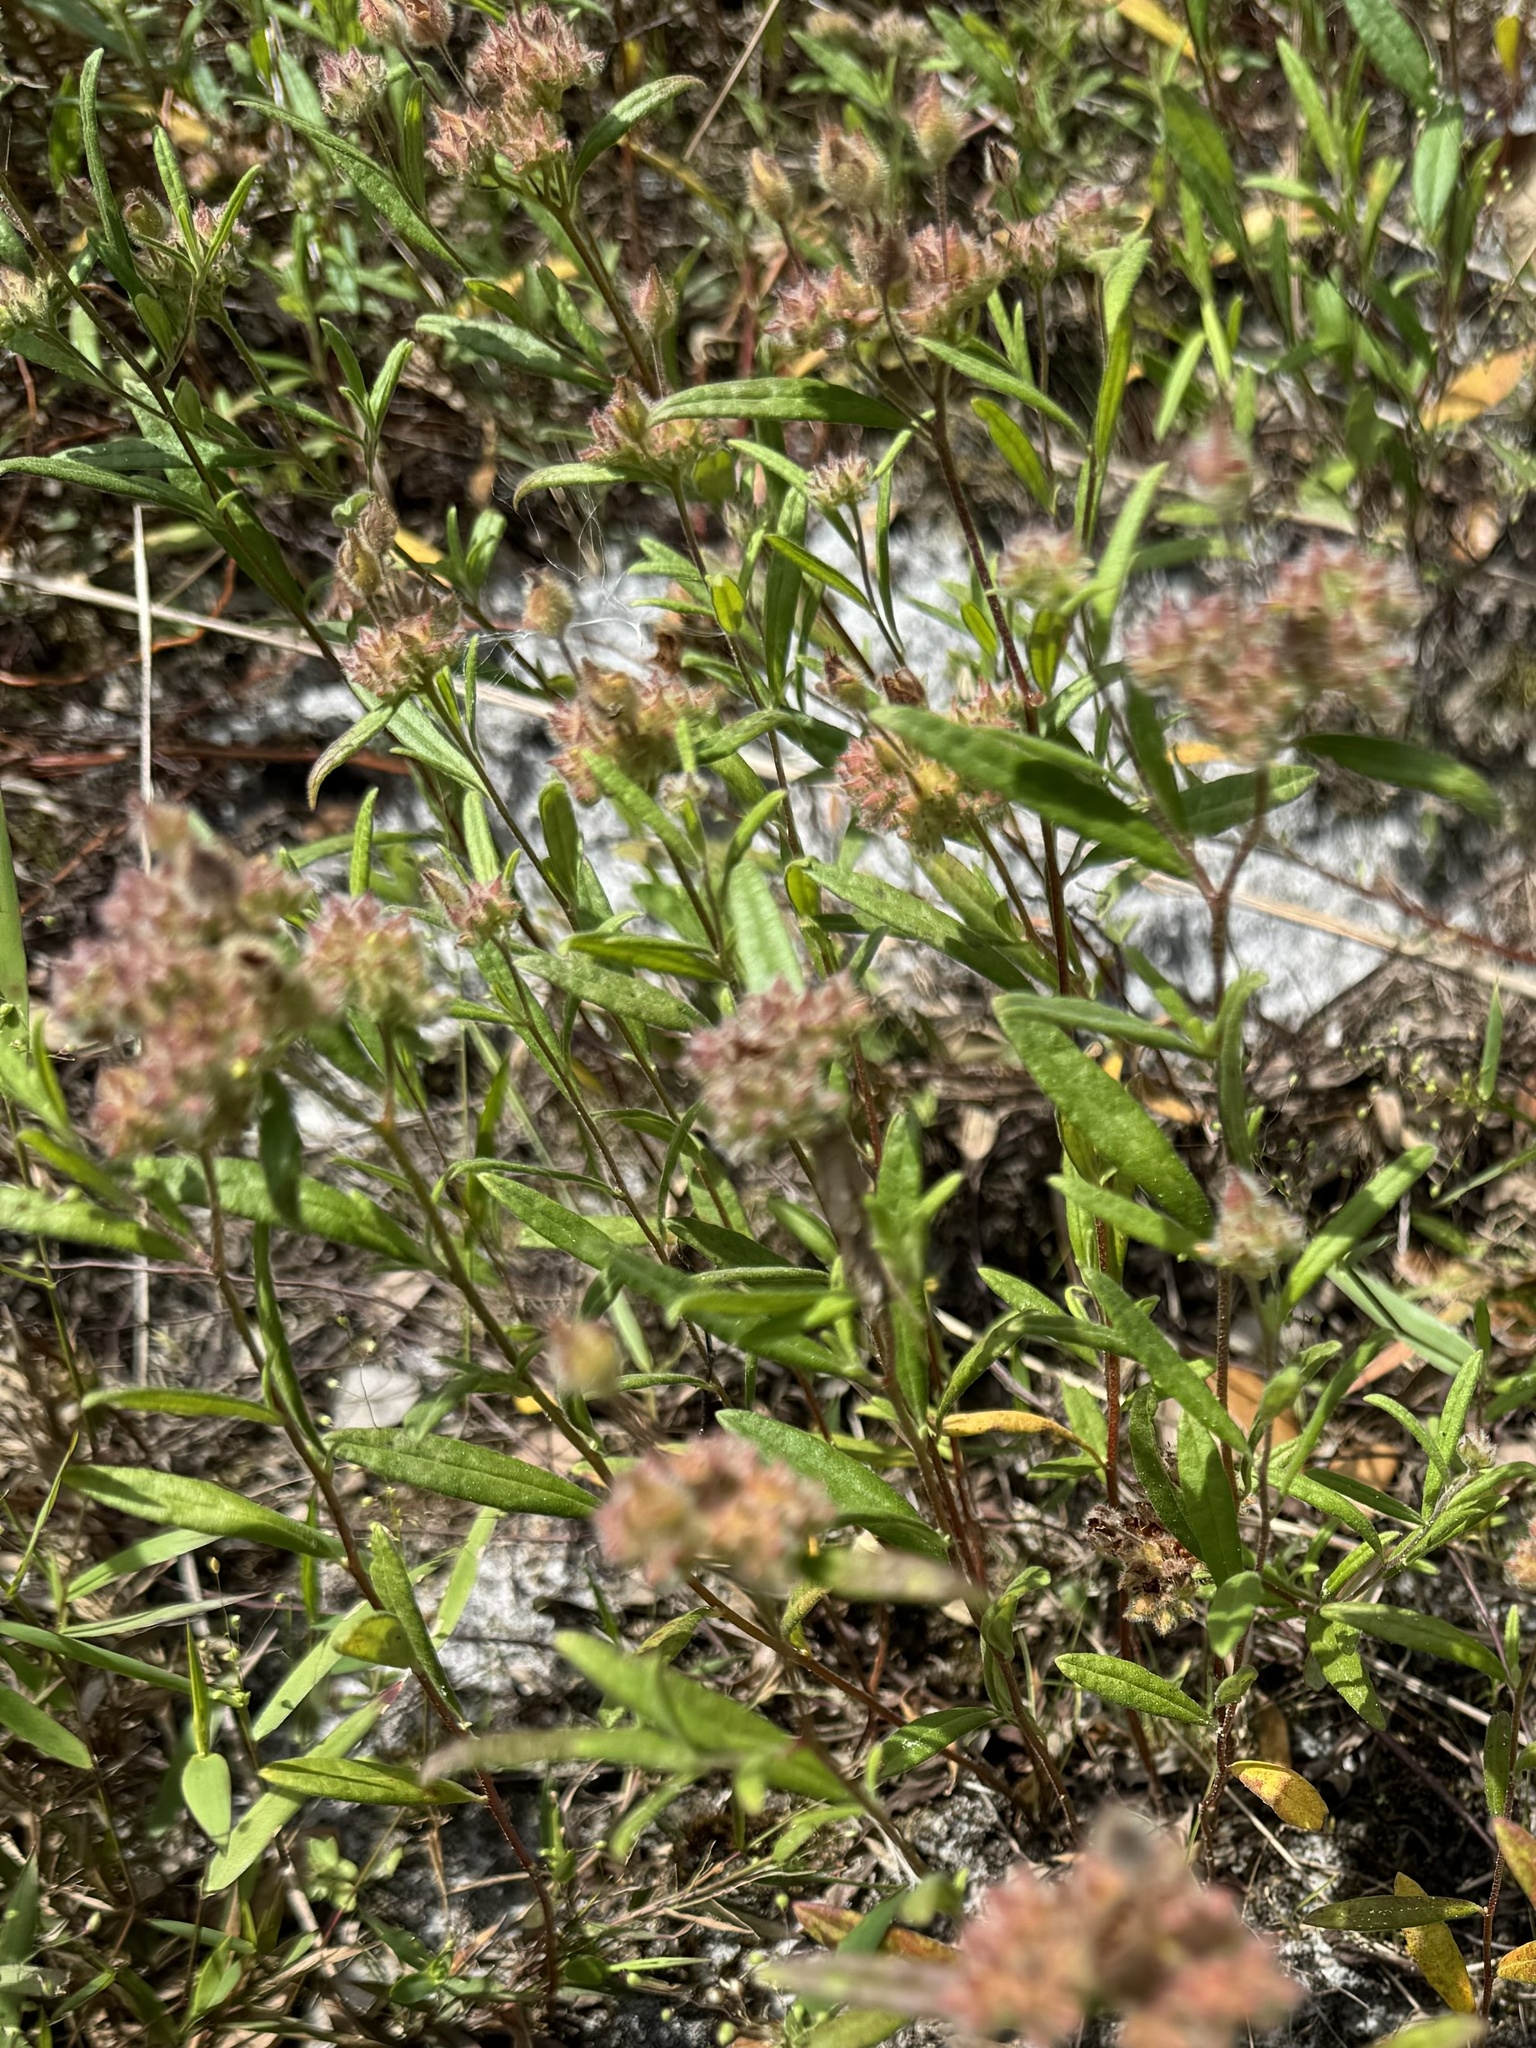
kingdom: Plantae
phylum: Tracheophyta
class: Magnoliopsida
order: Malvales
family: Cistaceae
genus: Crocanthemum
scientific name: Crocanthemum corymbosum
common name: Pinebarren sun-rose
